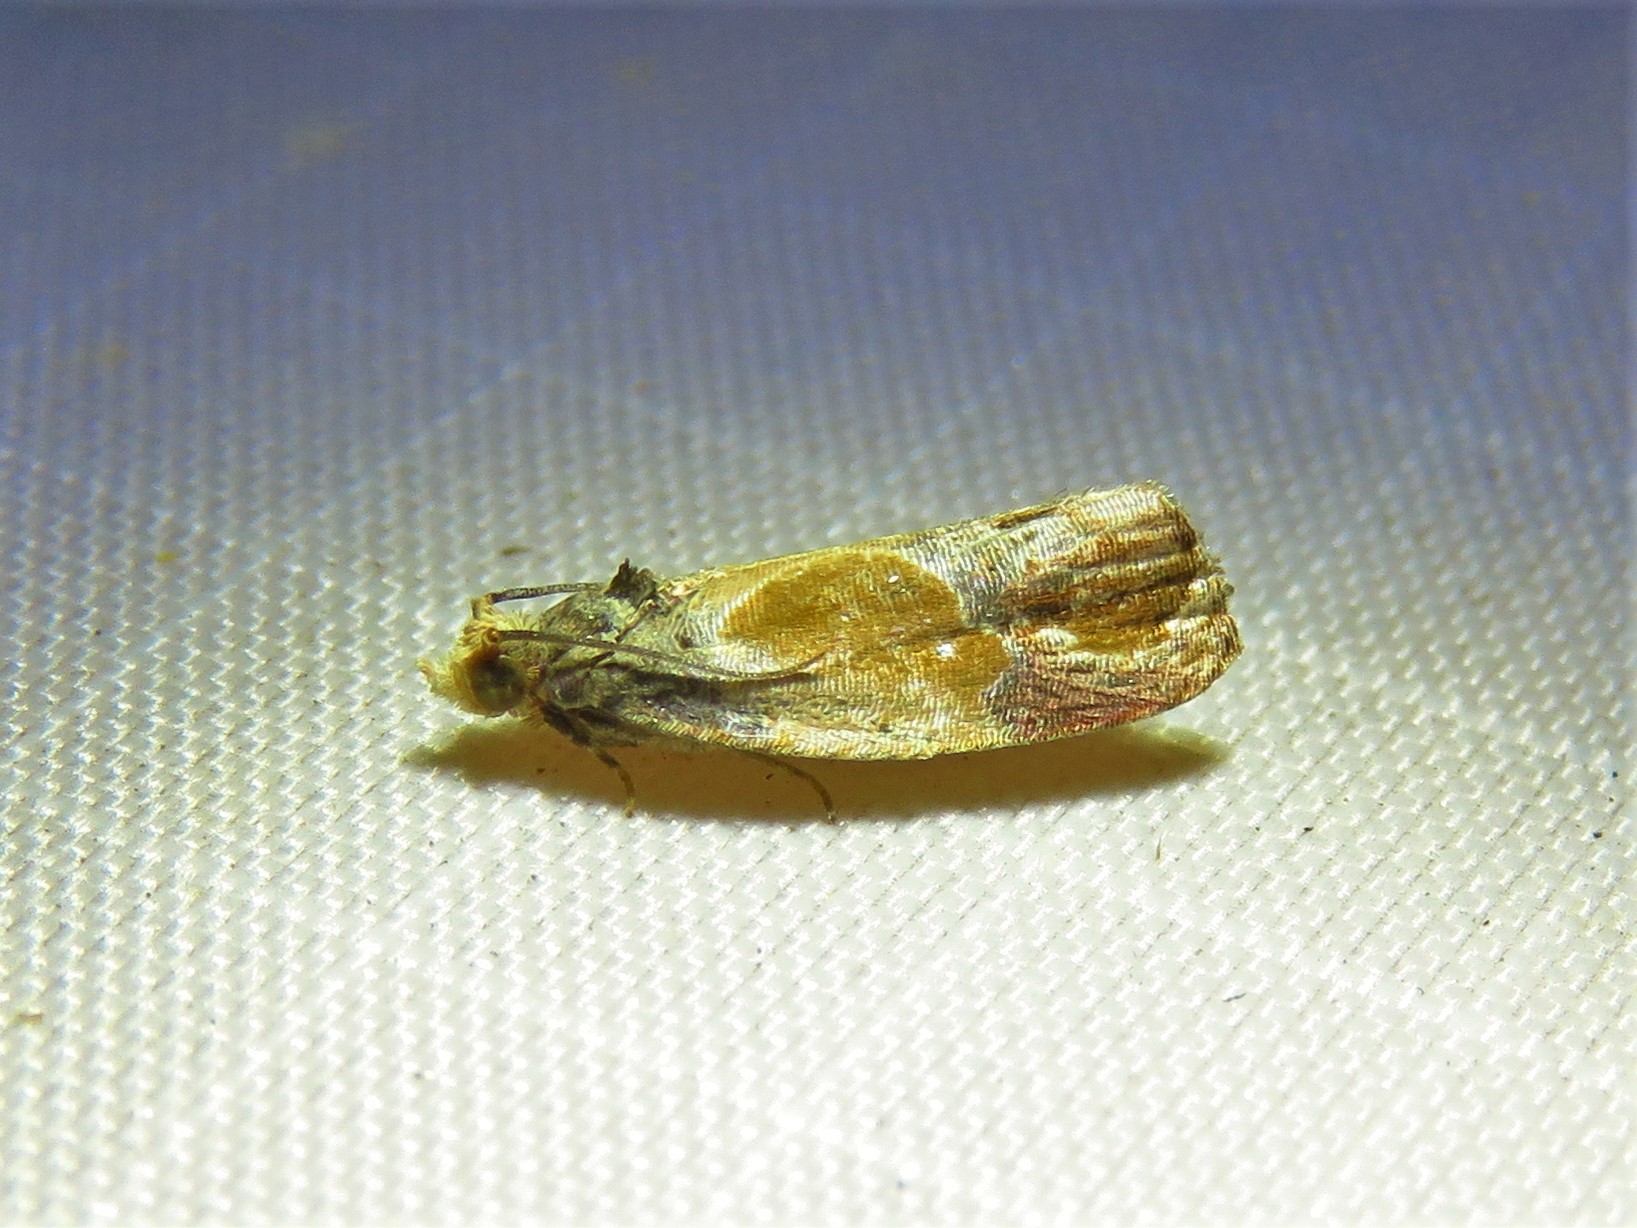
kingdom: Animalia
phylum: Arthropoda
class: Insecta
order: Lepidoptera
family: Tortricidae
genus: Eumarozia
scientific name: Eumarozia malachitana
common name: Sculptured moth
